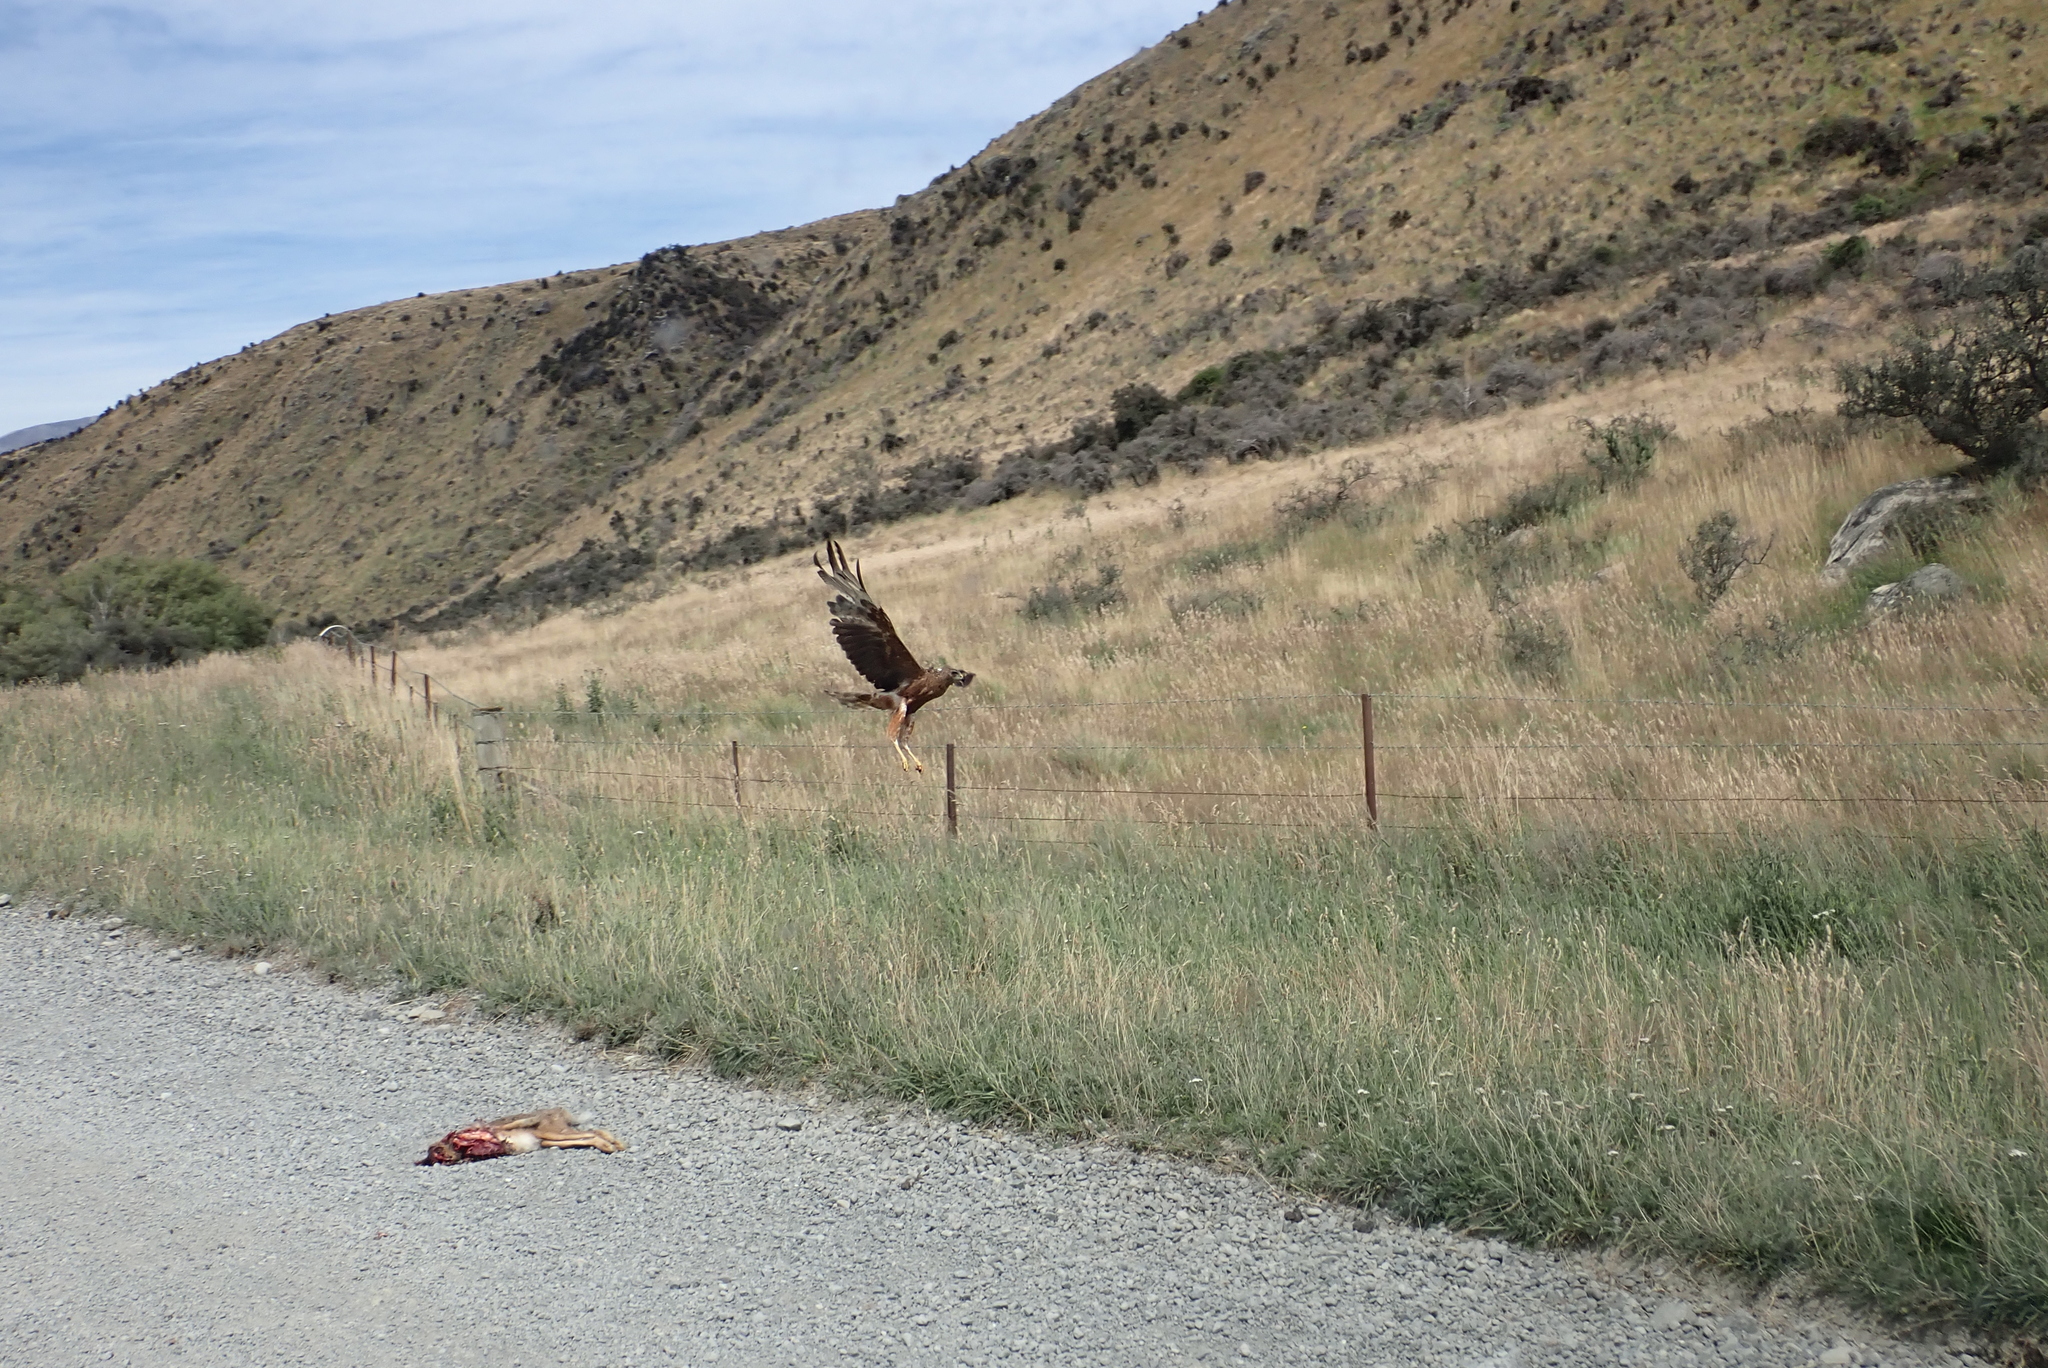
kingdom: Animalia
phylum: Chordata
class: Aves
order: Accipitriformes
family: Accipitridae
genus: Circus
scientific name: Circus approximans
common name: Swamp harrier
